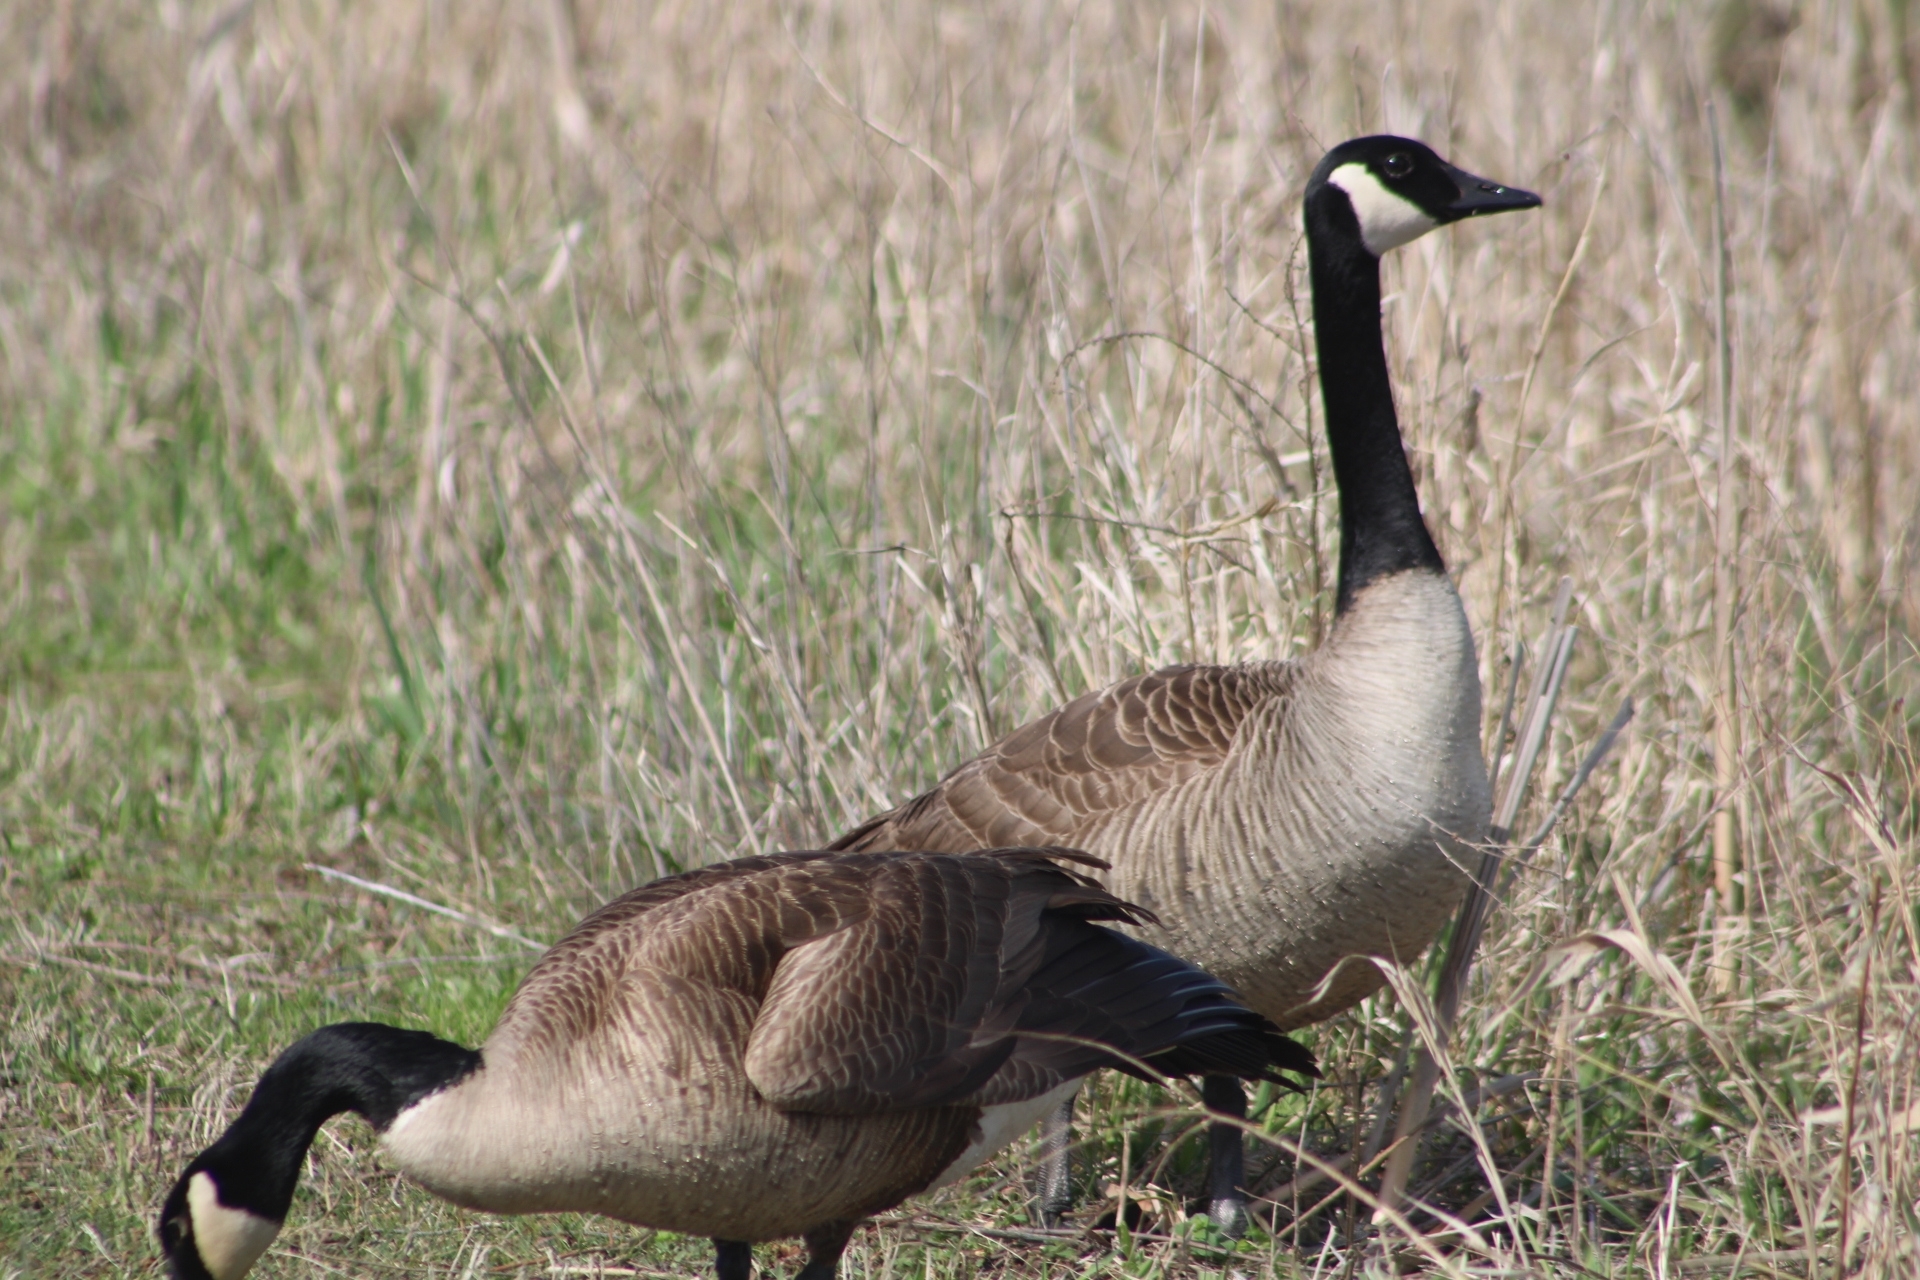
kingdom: Animalia
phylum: Chordata
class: Aves
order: Anseriformes
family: Anatidae
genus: Branta
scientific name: Branta canadensis
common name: Canada goose
